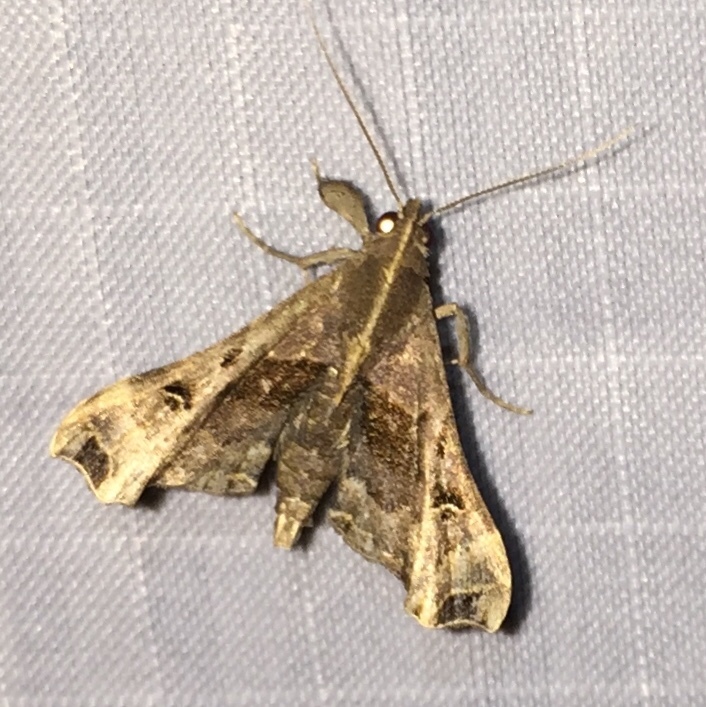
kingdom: Animalia
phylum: Arthropoda
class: Insecta
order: Lepidoptera
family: Erebidae
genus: Palthis
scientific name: Palthis asopialis
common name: Faint-spotted palthis moth
